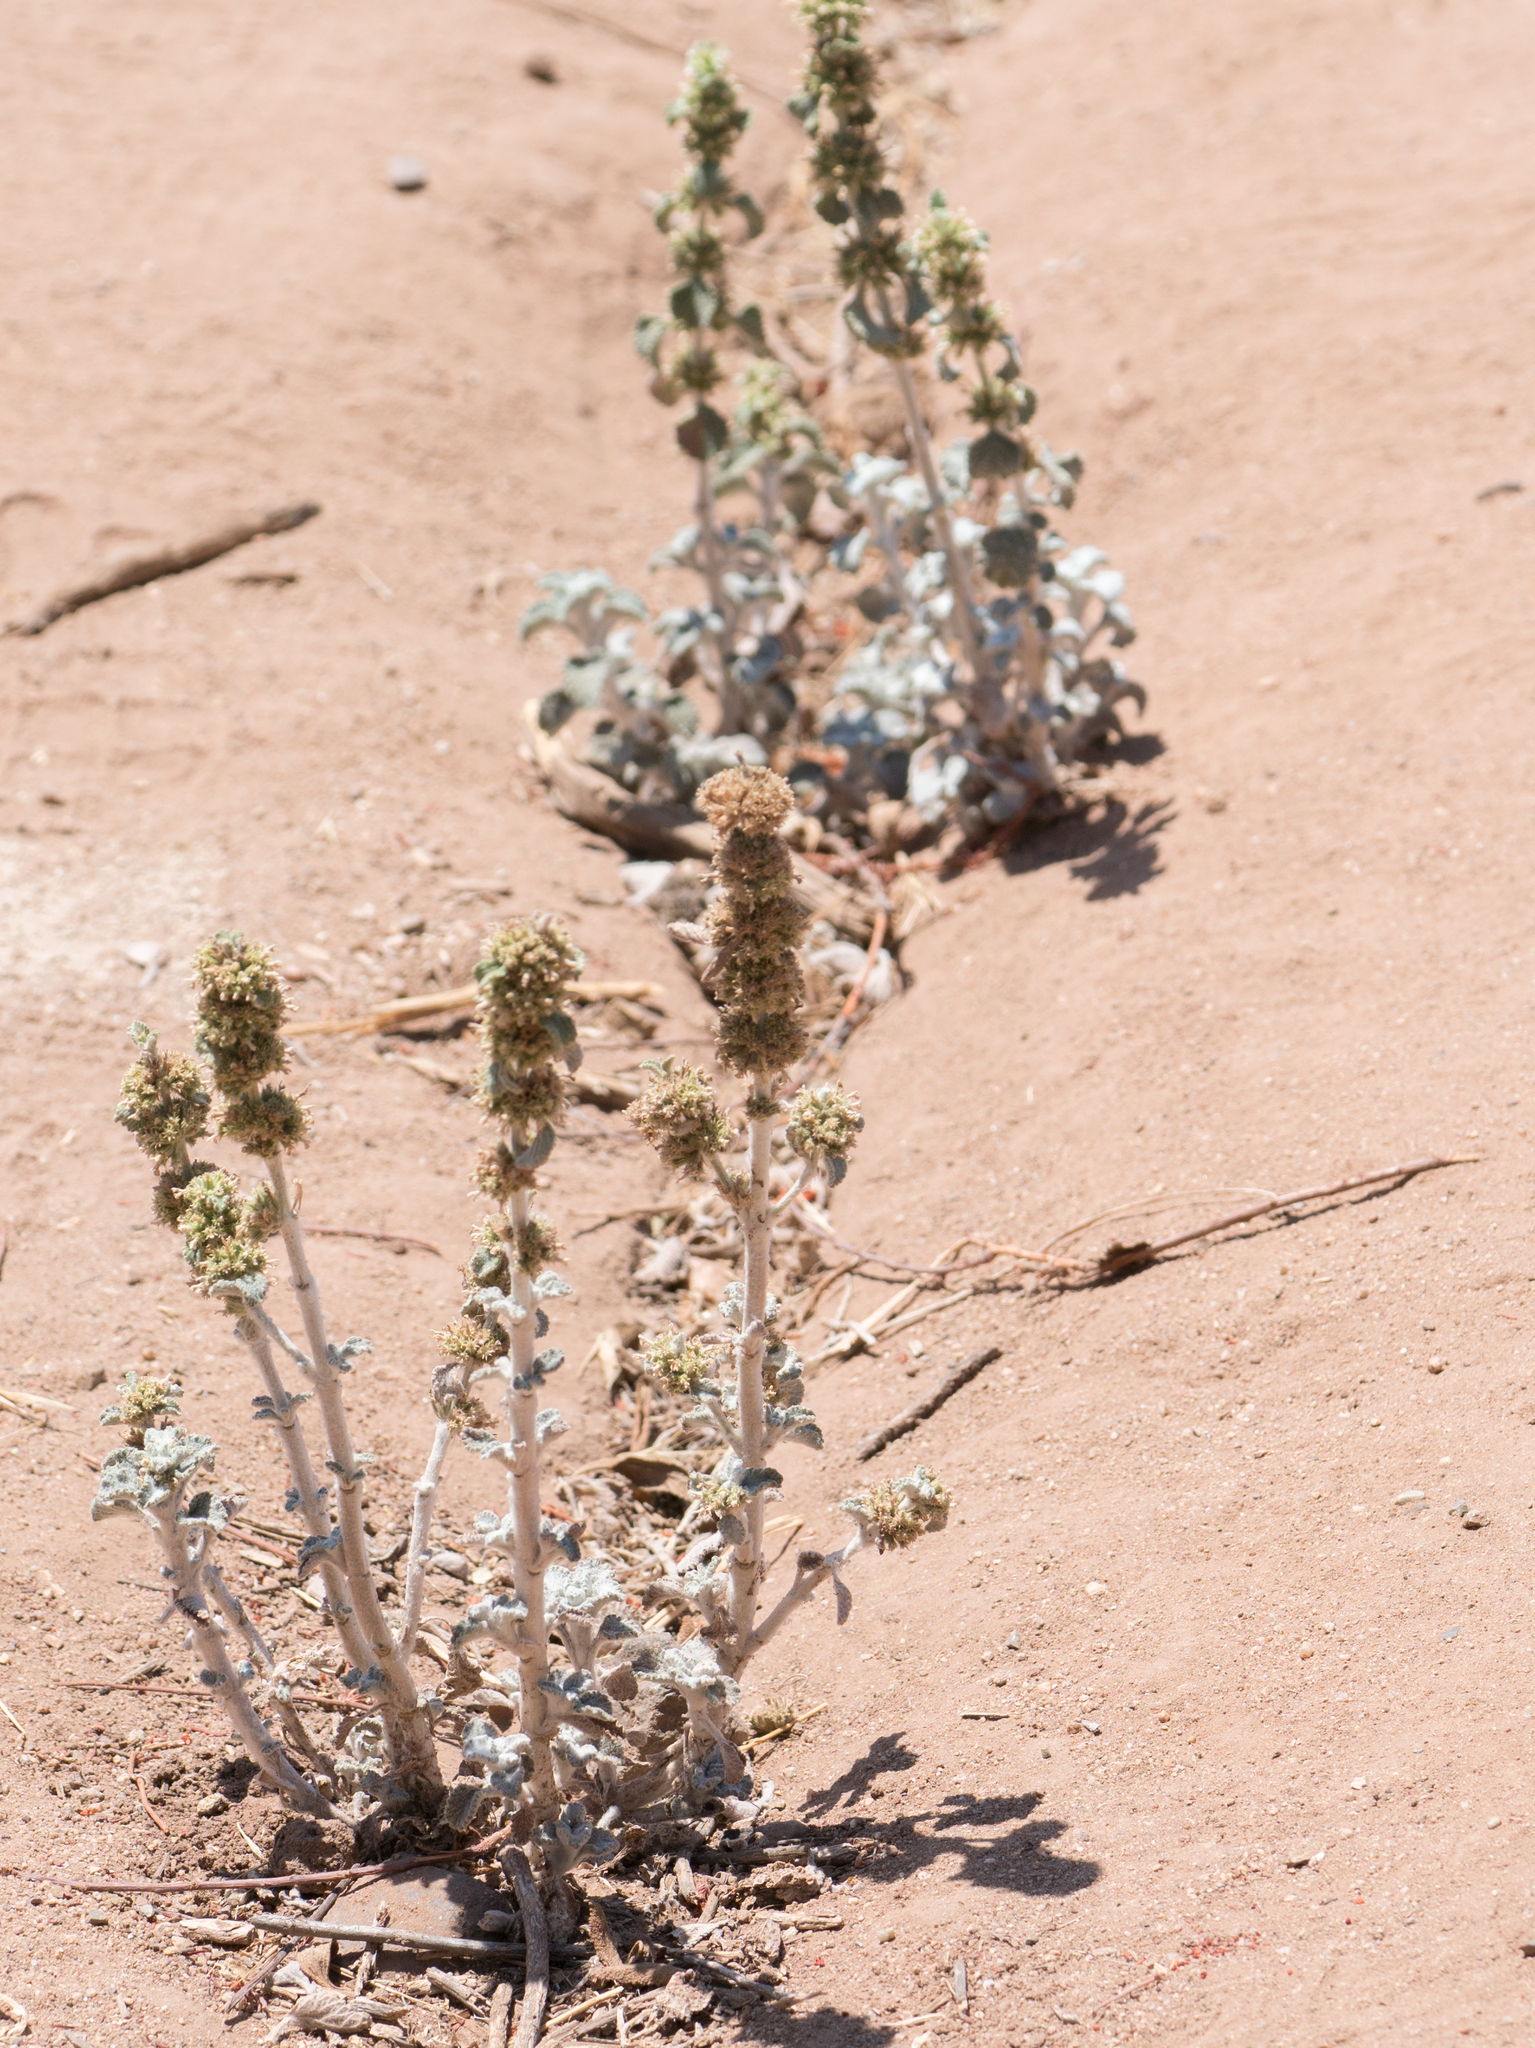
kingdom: Plantae
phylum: Tracheophyta
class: Magnoliopsida
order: Lamiales
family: Lamiaceae
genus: Marrubium
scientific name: Marrubium vulgare
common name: Horehound
